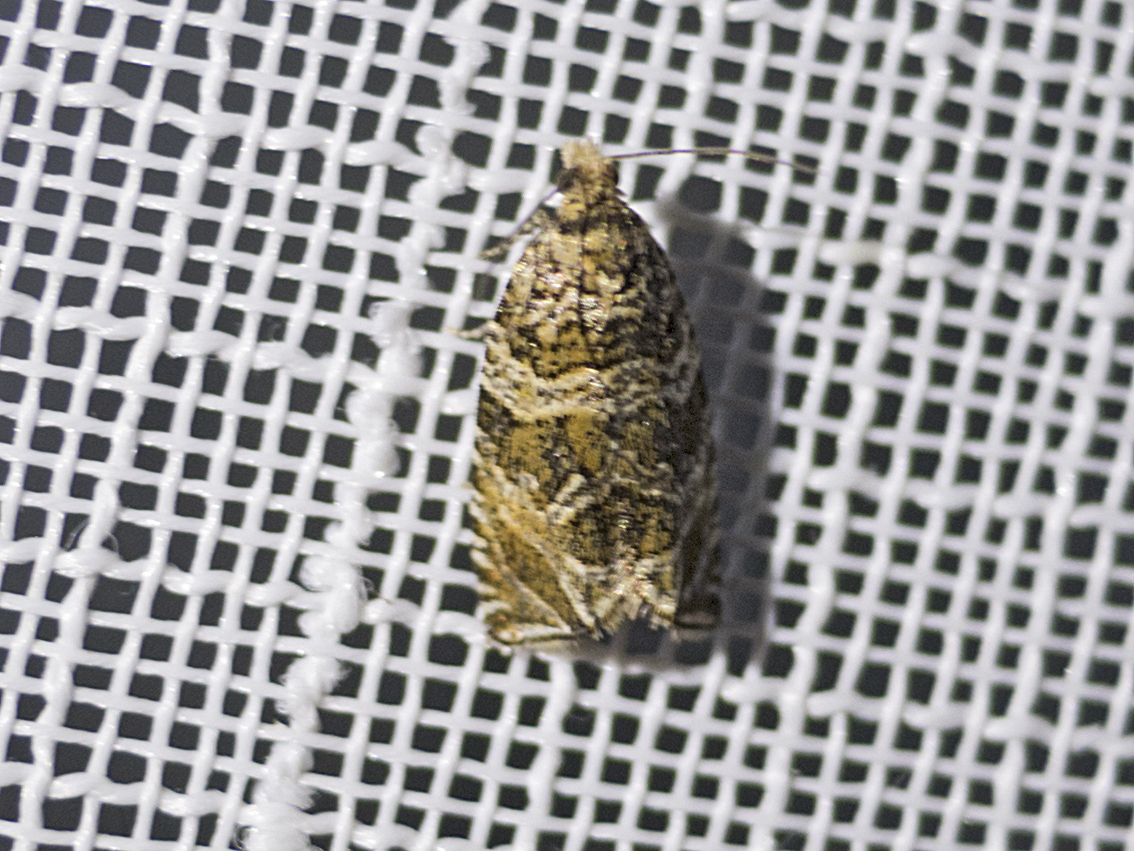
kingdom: Animalia
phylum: Arthropoda
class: Insecta
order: Lepidoptera
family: Tortricidae
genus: Syricoris
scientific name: Syricoris rivulana
